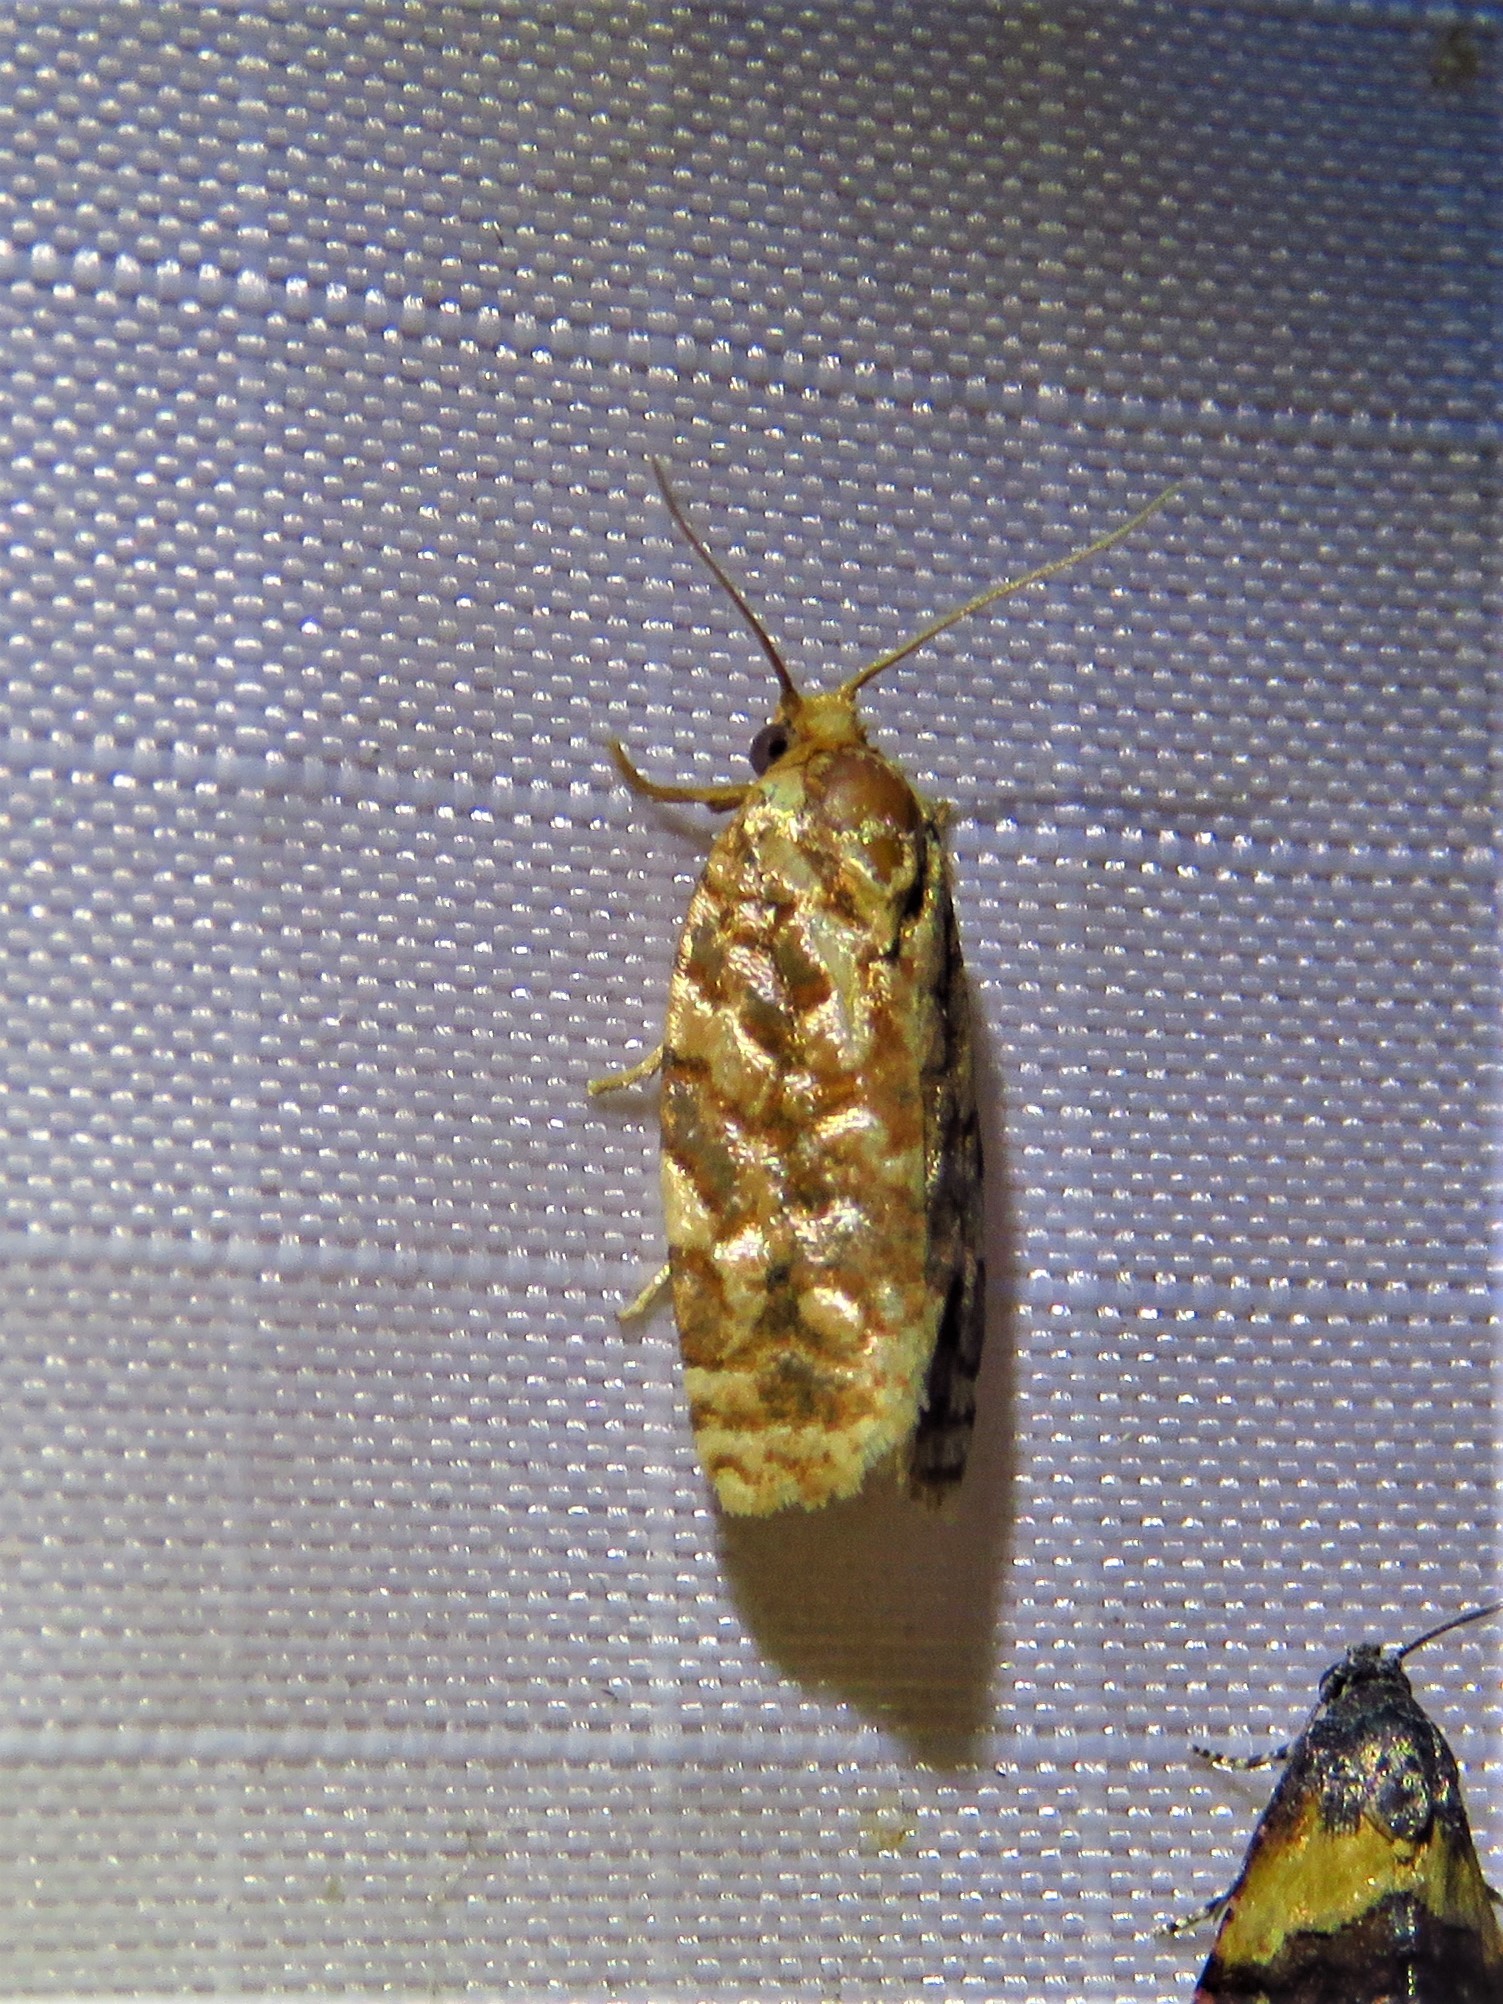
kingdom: Animalia
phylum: Arthropoda
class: Insecta
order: Lepidoptera
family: Tortricidae
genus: Choristoneura
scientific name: Choristoneura houstonana
